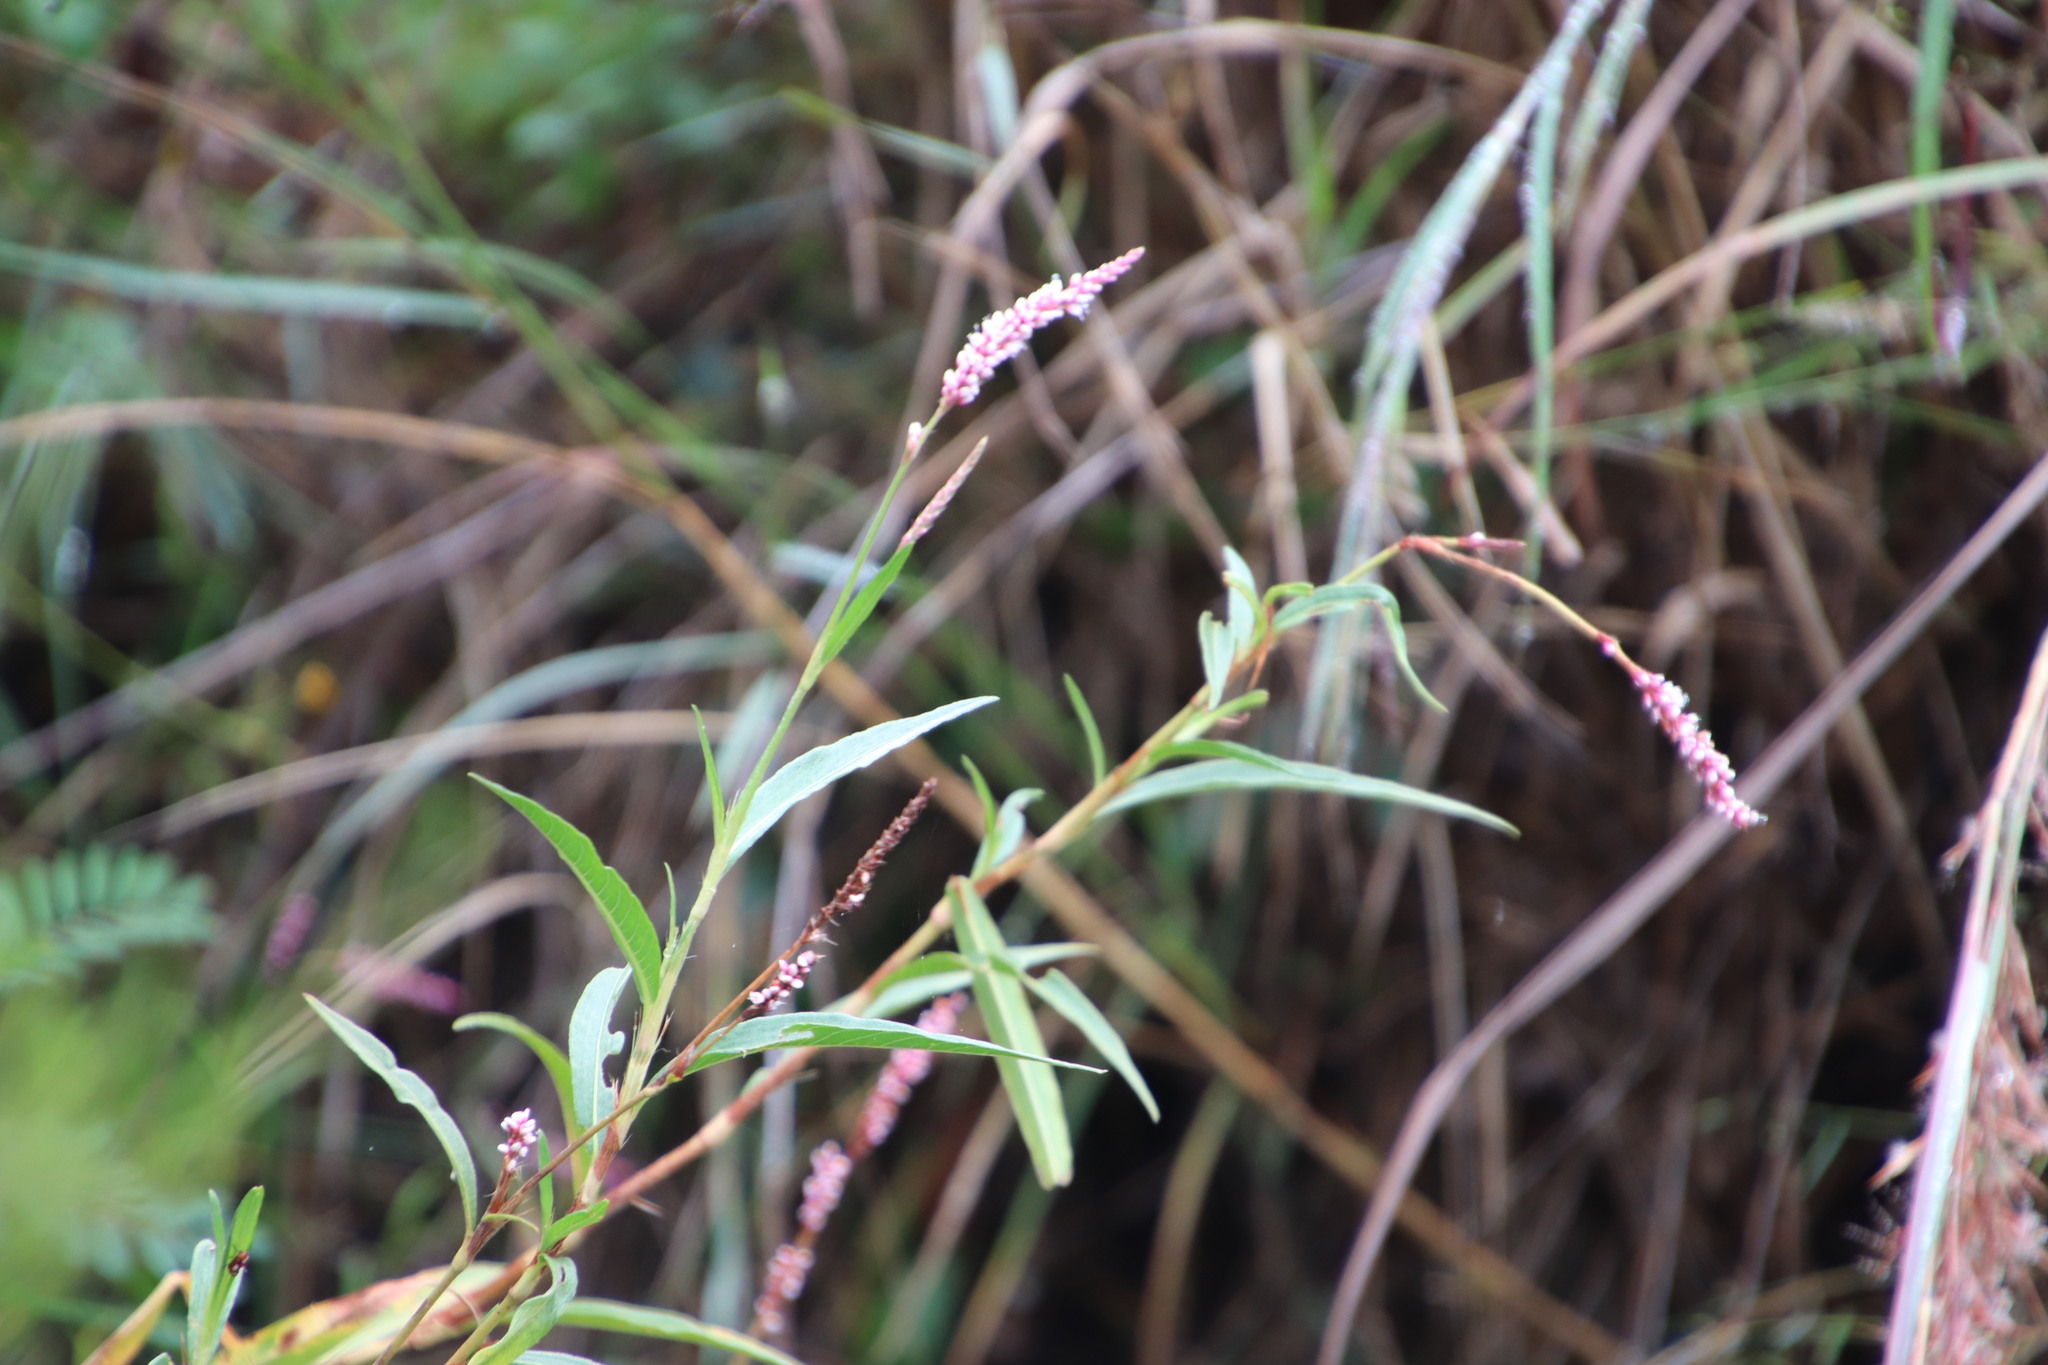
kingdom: Plantae
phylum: Tracheophyta
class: Magnoliopsida
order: Caryophyllales
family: Polygonaceae
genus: Persicaria
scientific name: Persicaria decipiens
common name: Willow-weed
